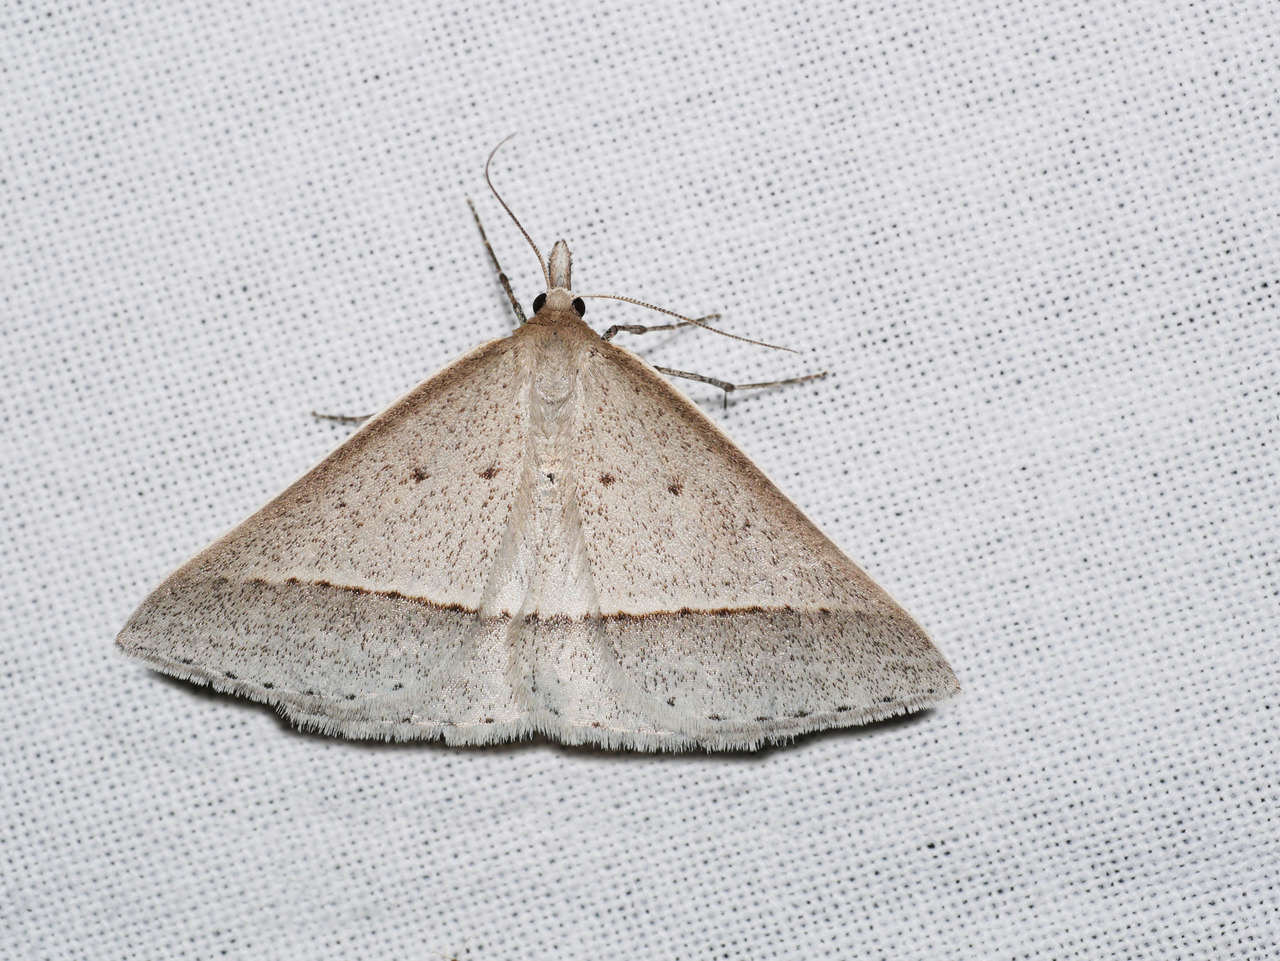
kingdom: Animalia
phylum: Arthropoda
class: Insecta
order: Lepidoptera
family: Geometridae
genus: Epidesmia
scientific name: Epidesmia perfabricata
